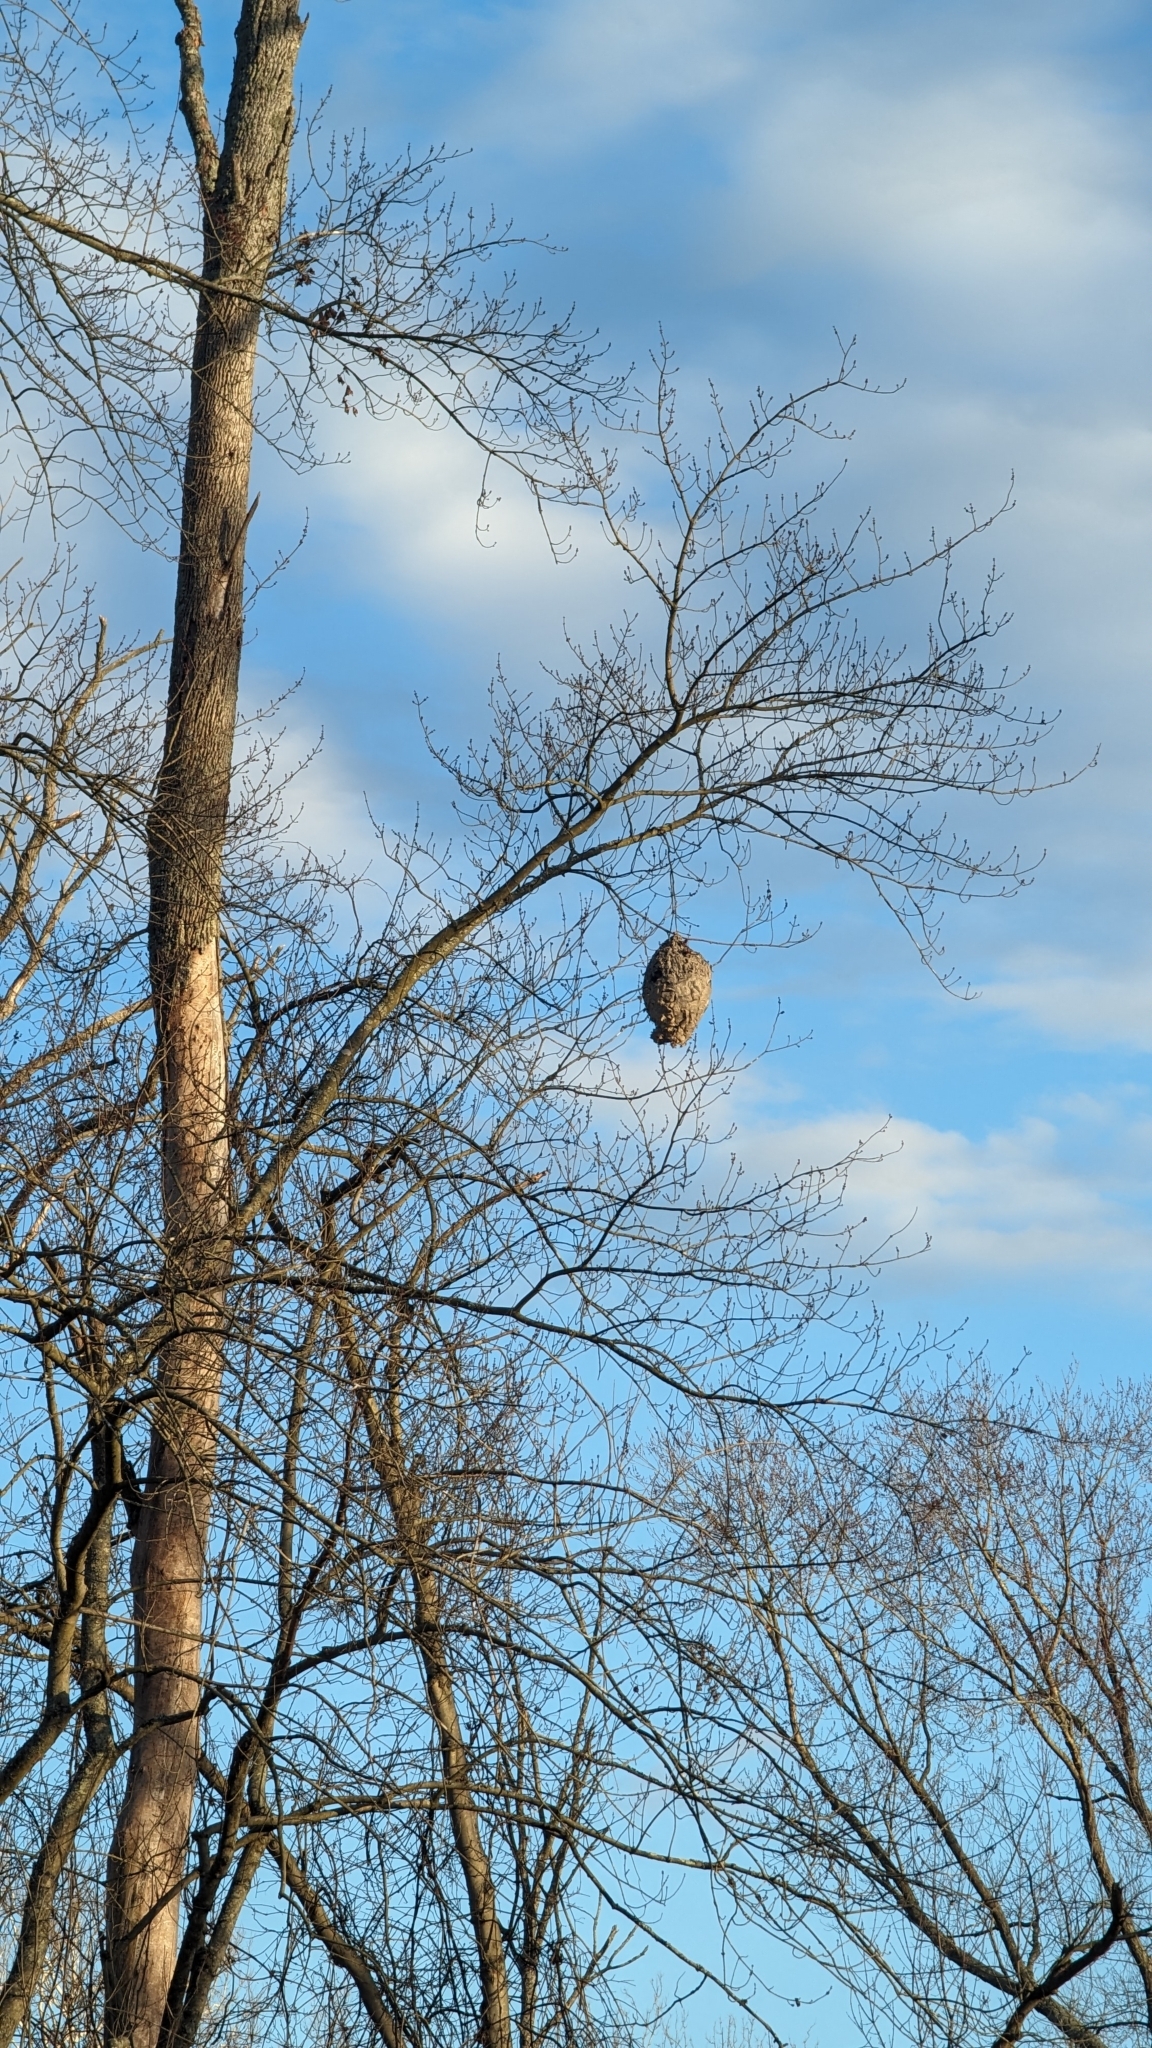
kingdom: Animalia
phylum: Arthropoda
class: Insecta
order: Hymenoptera
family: Vespidae
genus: Dolichovespula
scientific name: Dolichovespula maculata
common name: Bald-faced hornet
